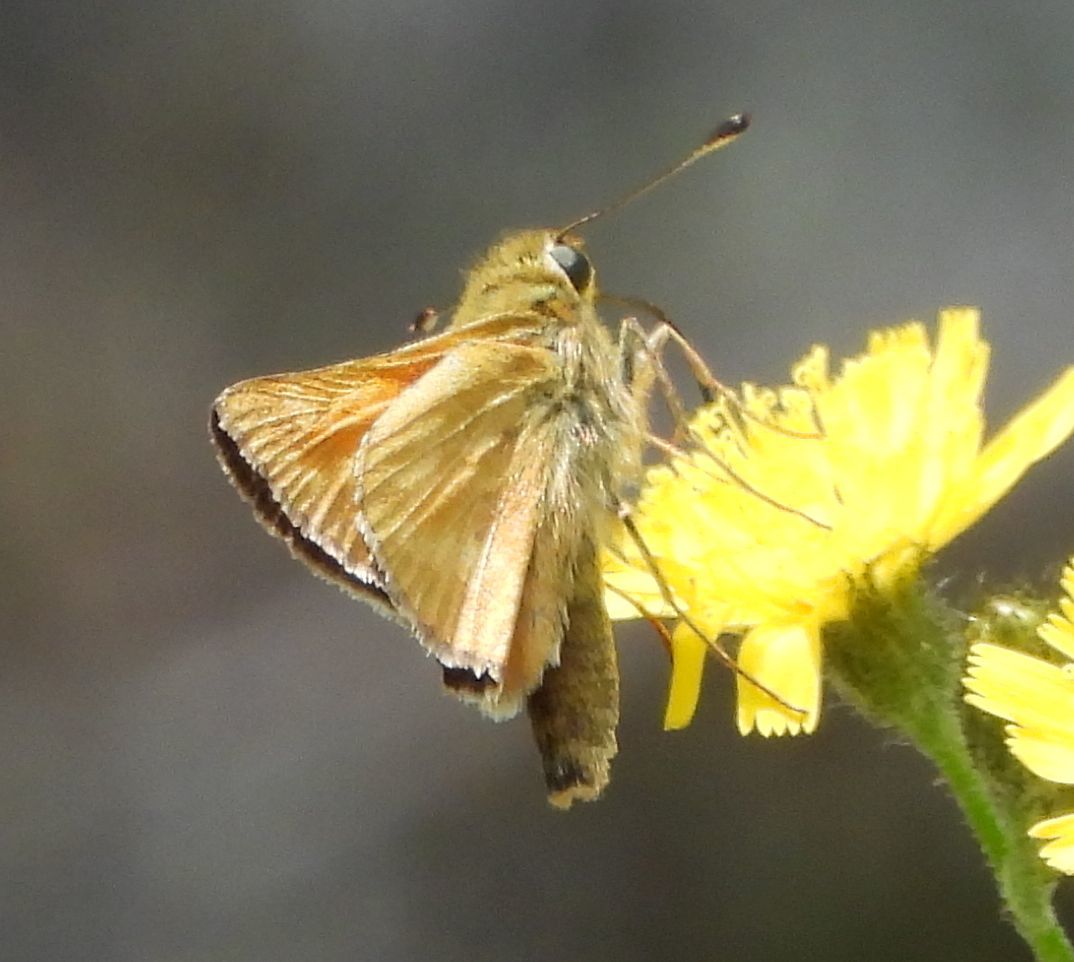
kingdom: Animalia
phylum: Arthropoda
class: Insecta
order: Lepidoptera
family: Hesperiidae
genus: Hesperia
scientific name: Hesperia sassacus
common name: Indian skipper
